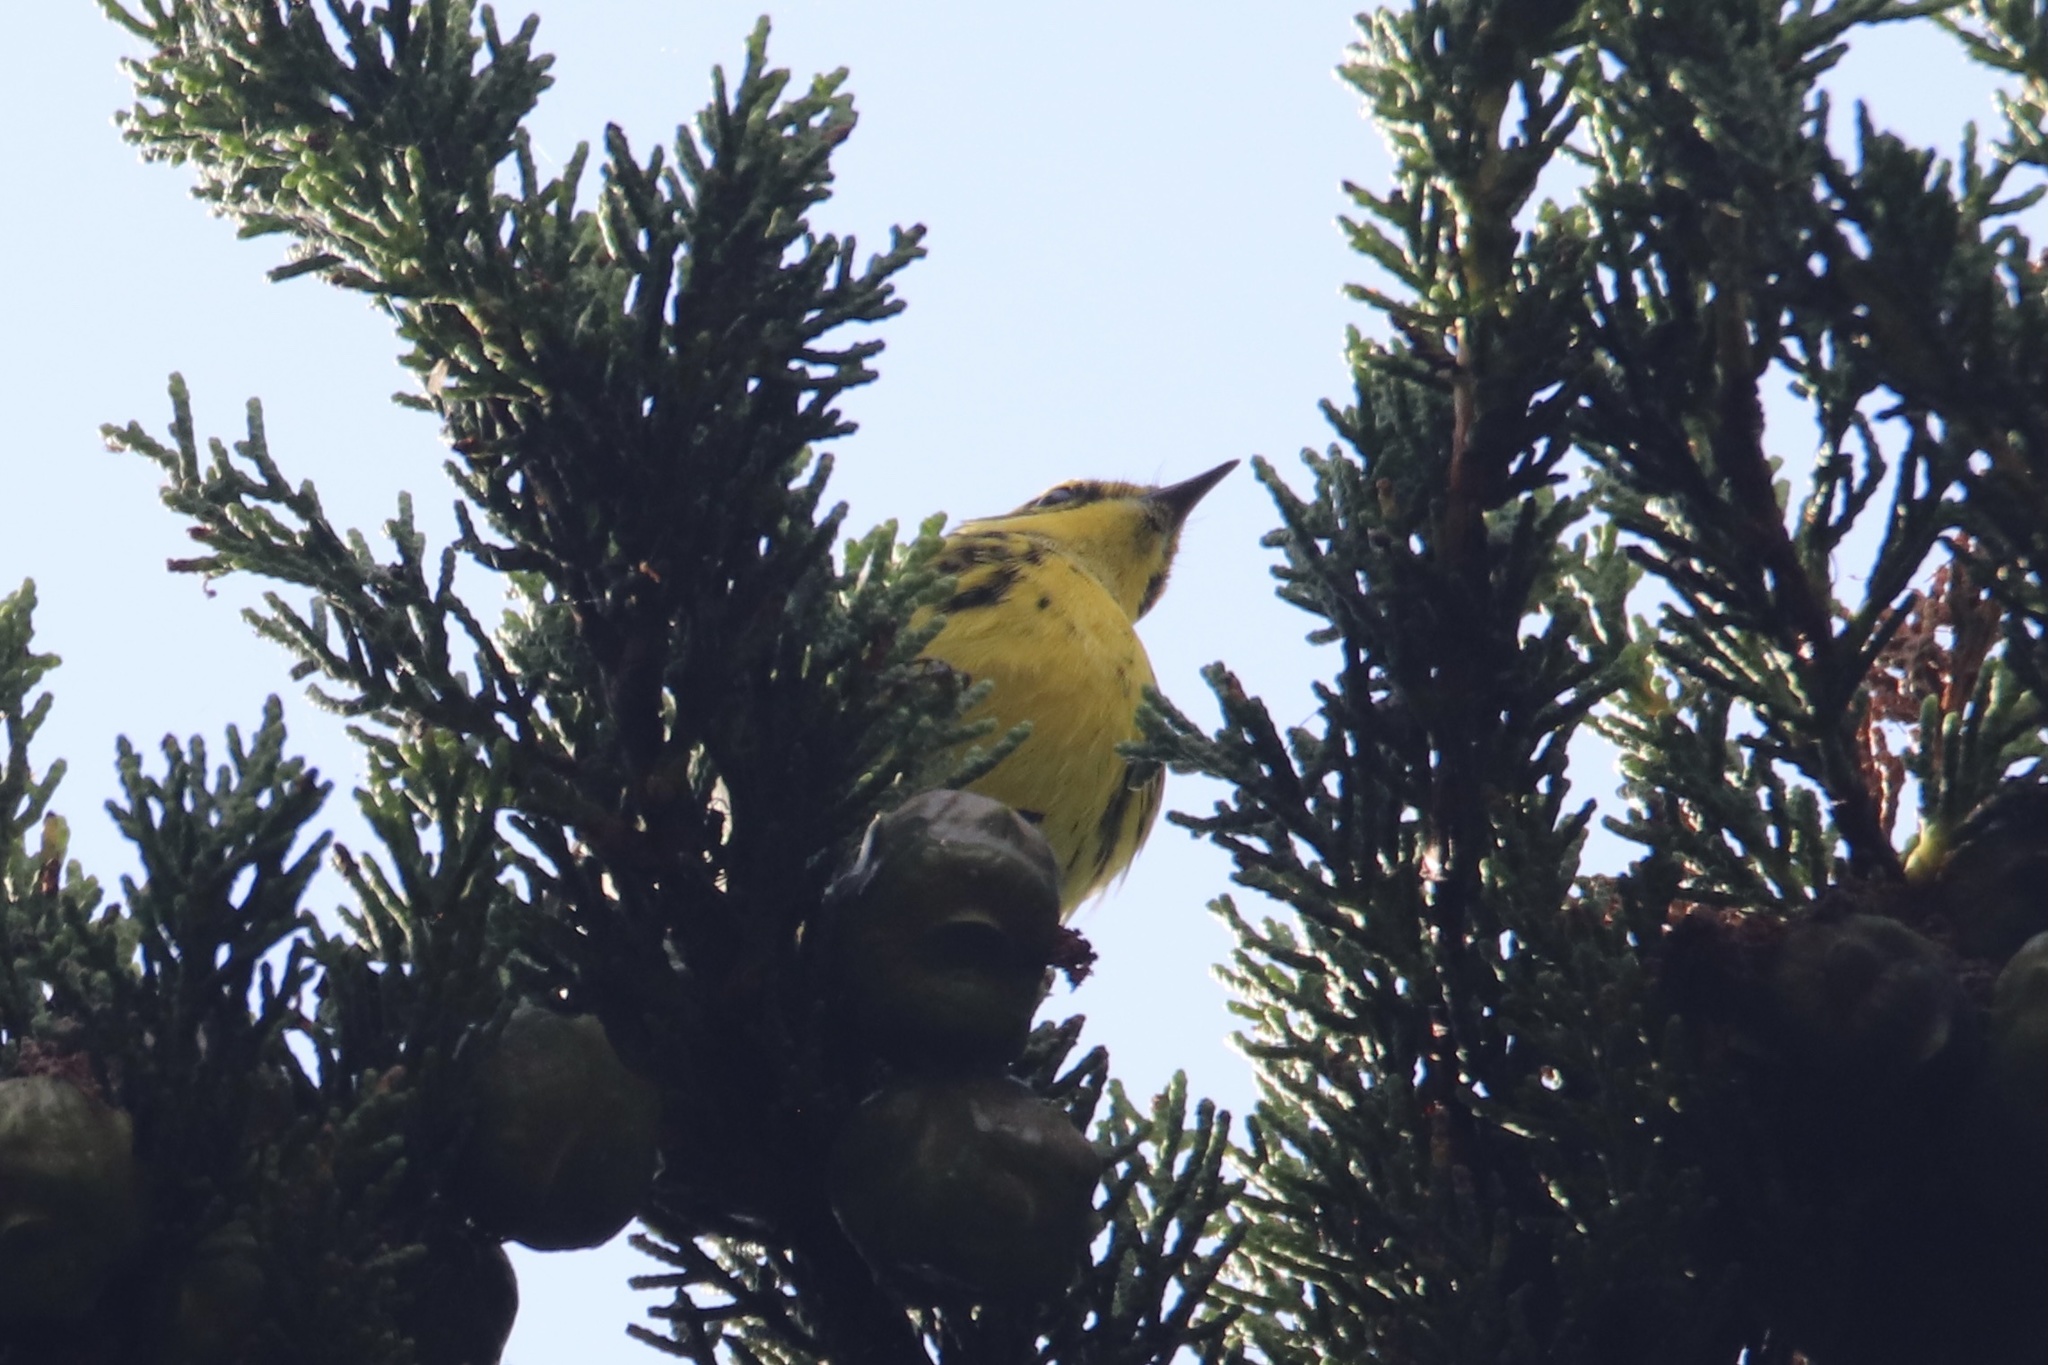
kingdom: Animalia
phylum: Chordata
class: Aves
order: Passeriformes
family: Parulidae
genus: Setophaga
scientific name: Setophaga townsendi
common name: Townsend's warbler
